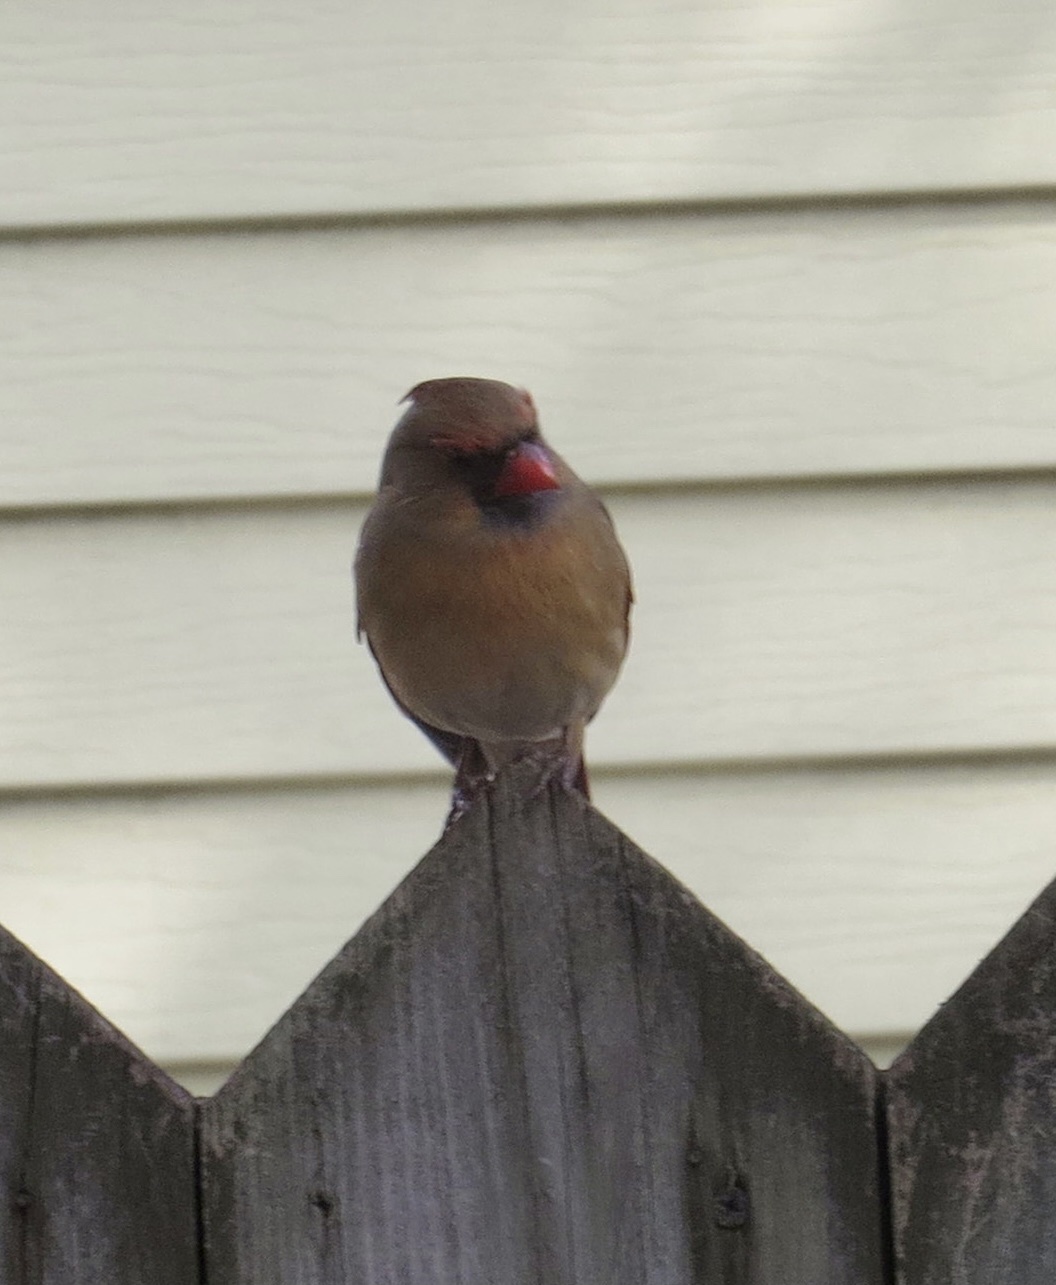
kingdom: Animalia
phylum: Chordata
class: Aves
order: Passeriformes
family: Cardinalidae
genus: Cardinalis
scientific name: Cardinalis cardinalis
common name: Northern cardinal
